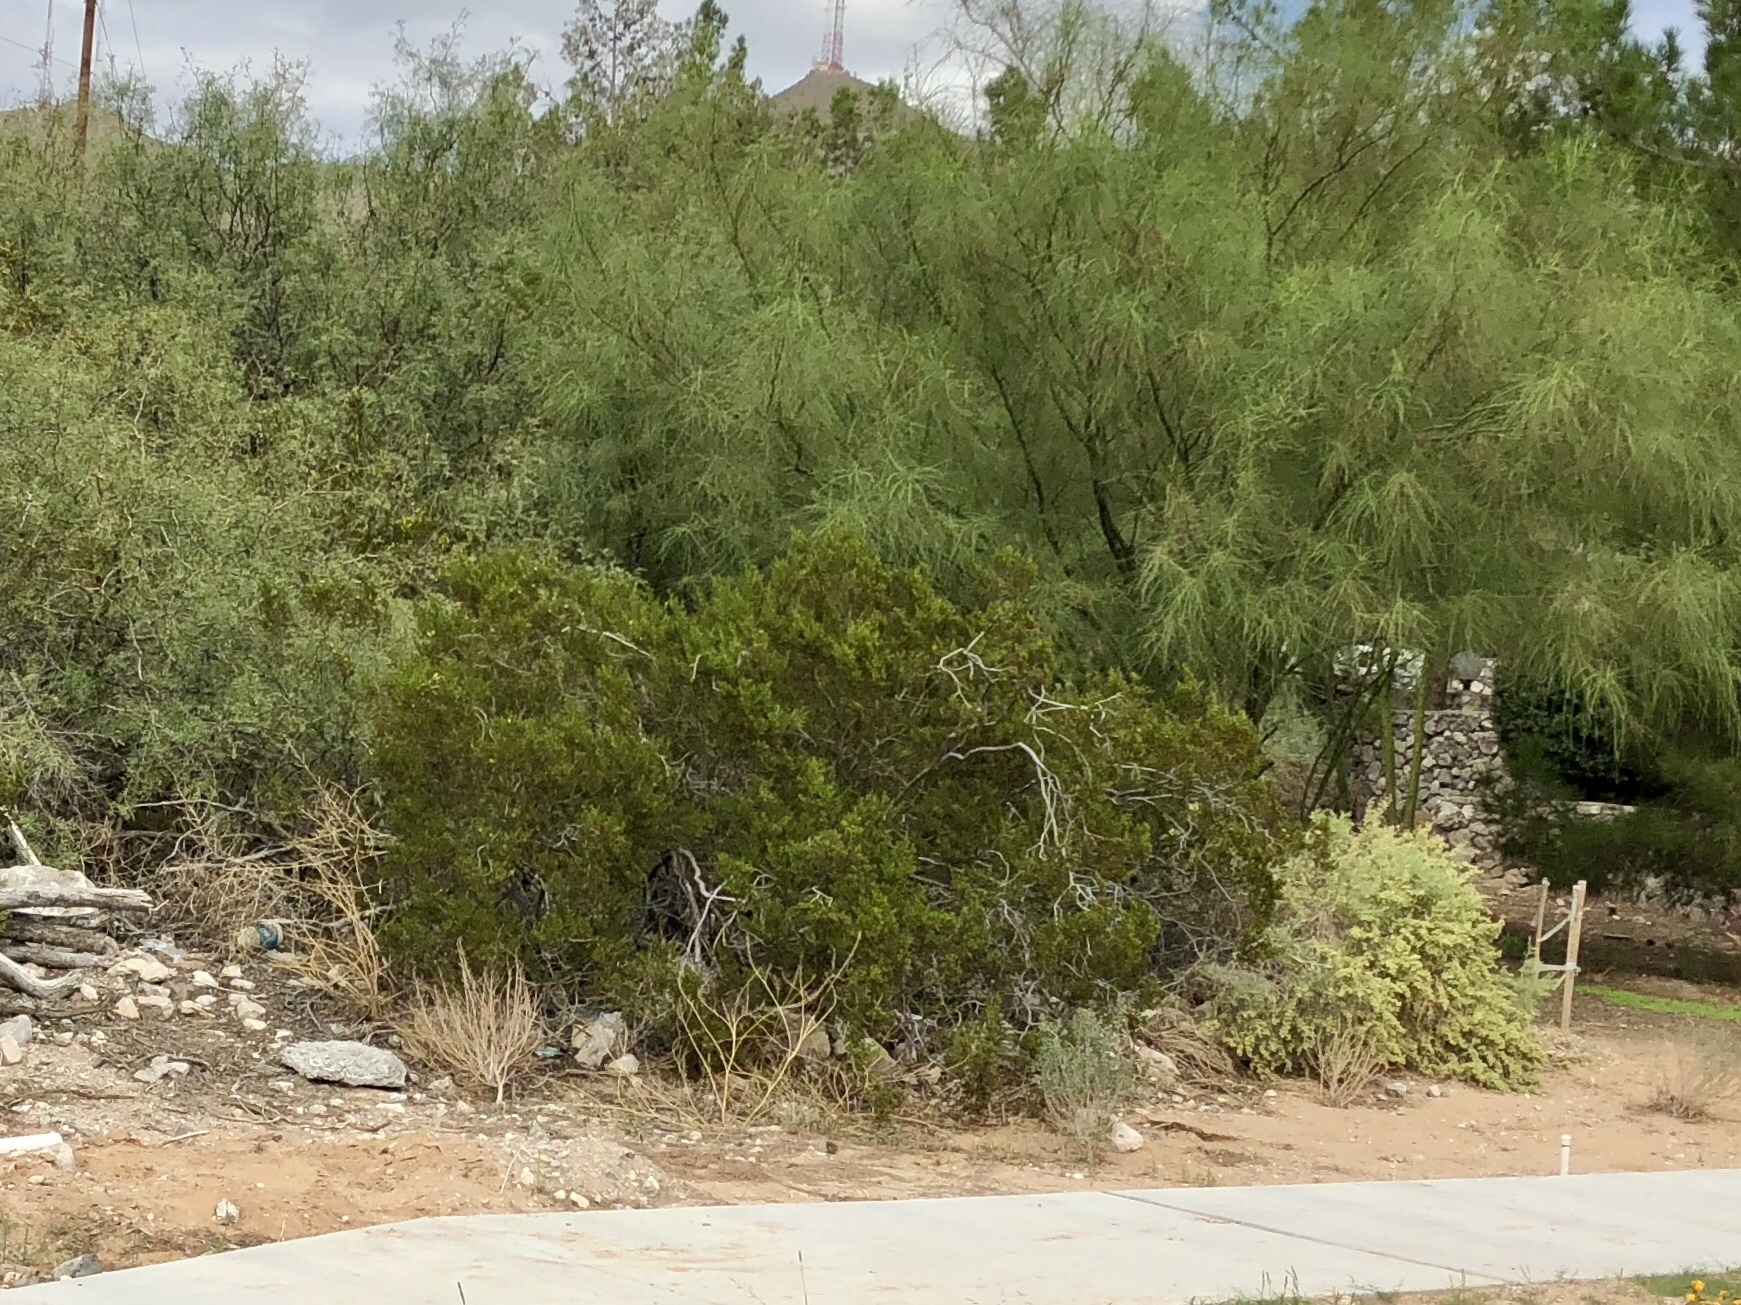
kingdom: Plantae
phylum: Tracheophyta
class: Magnoliopsida
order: Zygophyllales
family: Zygophyllaceae
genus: Larrea
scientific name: Larrea tridentata
